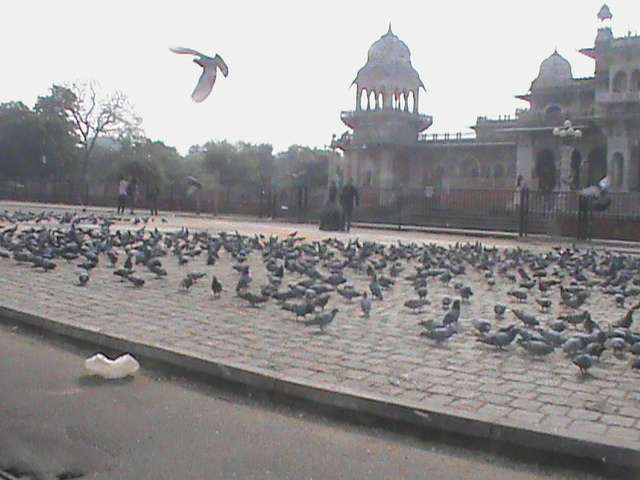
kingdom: Animalia
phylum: Chordata
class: Aves
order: Columbiformes
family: Columbidae
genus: Columba
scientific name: Columba livia
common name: Rock pigeon
